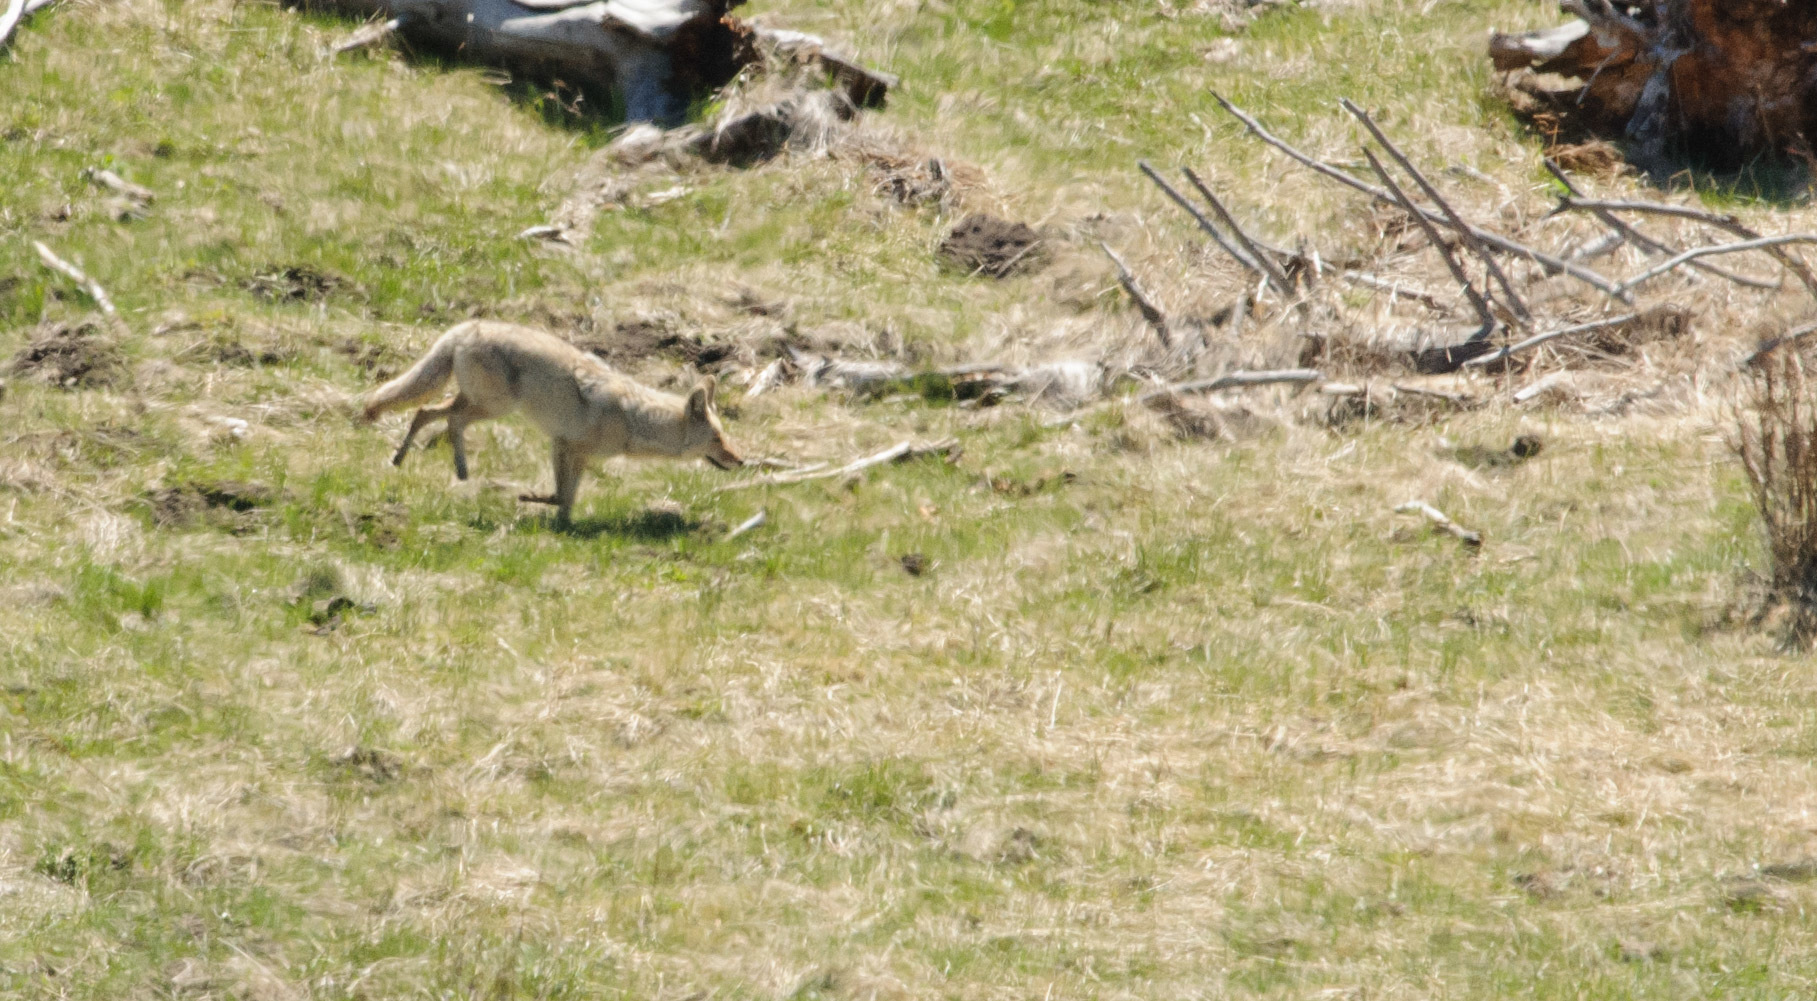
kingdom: Animalia
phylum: Chordata
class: Mammalia
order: Carnivora
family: Canidae
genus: Canis
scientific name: Canis latrans
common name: Coyote
